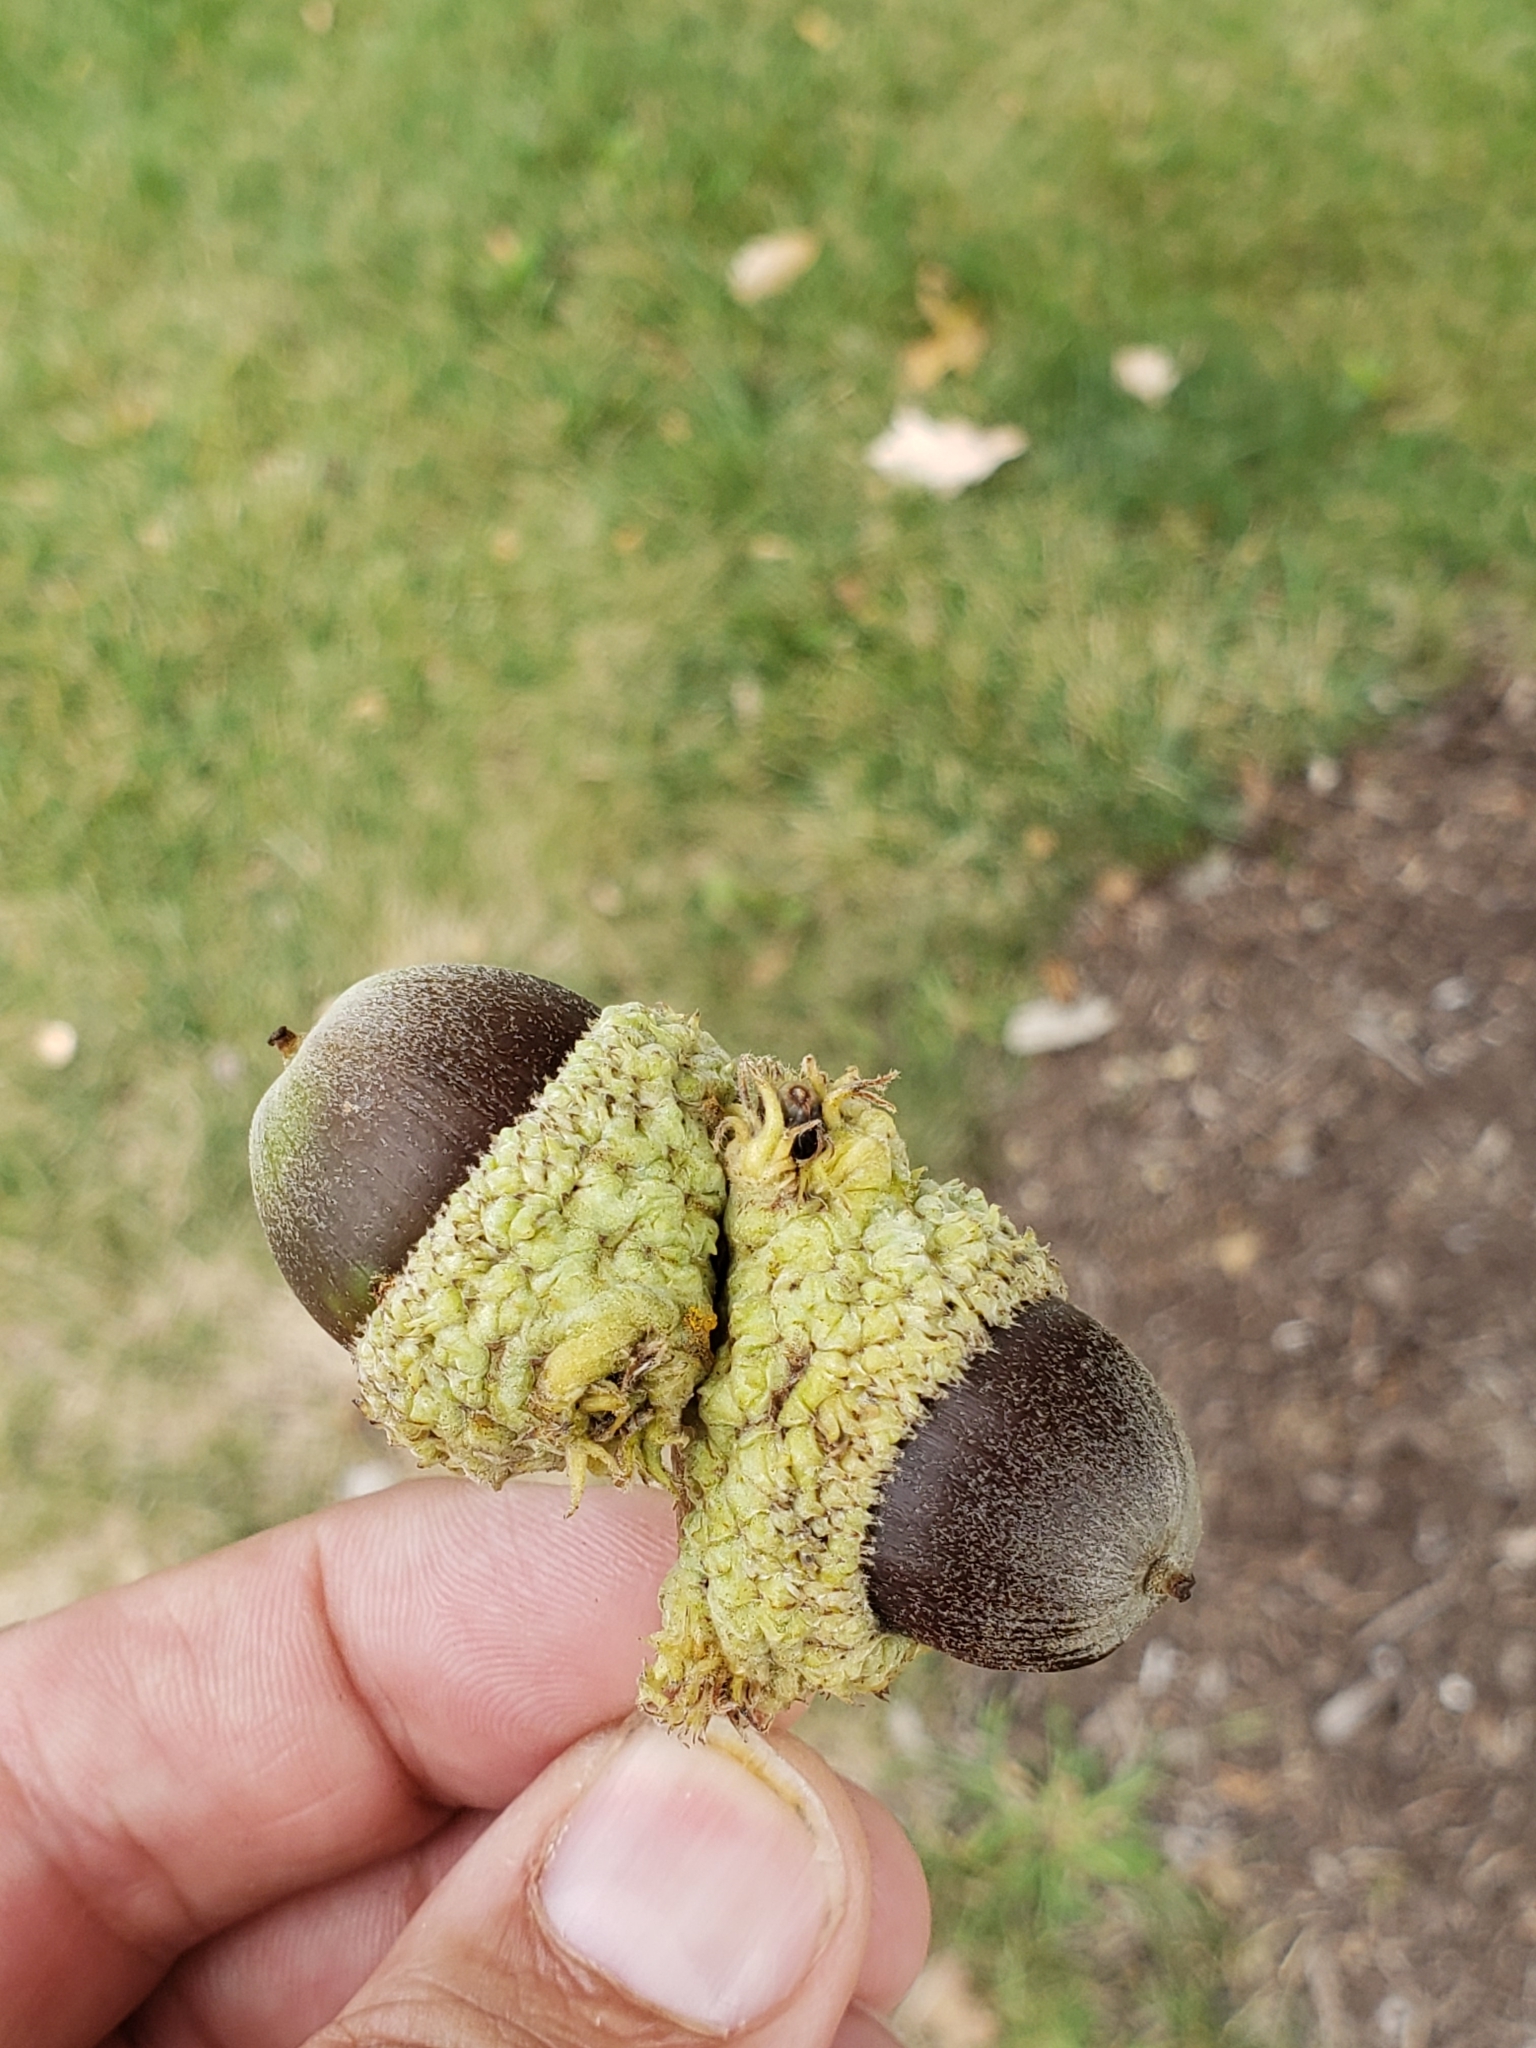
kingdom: Animalia
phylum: Arthropoda
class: Insecta
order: Hymenoptera
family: Cynipidae
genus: Andricus
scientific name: Andricus
